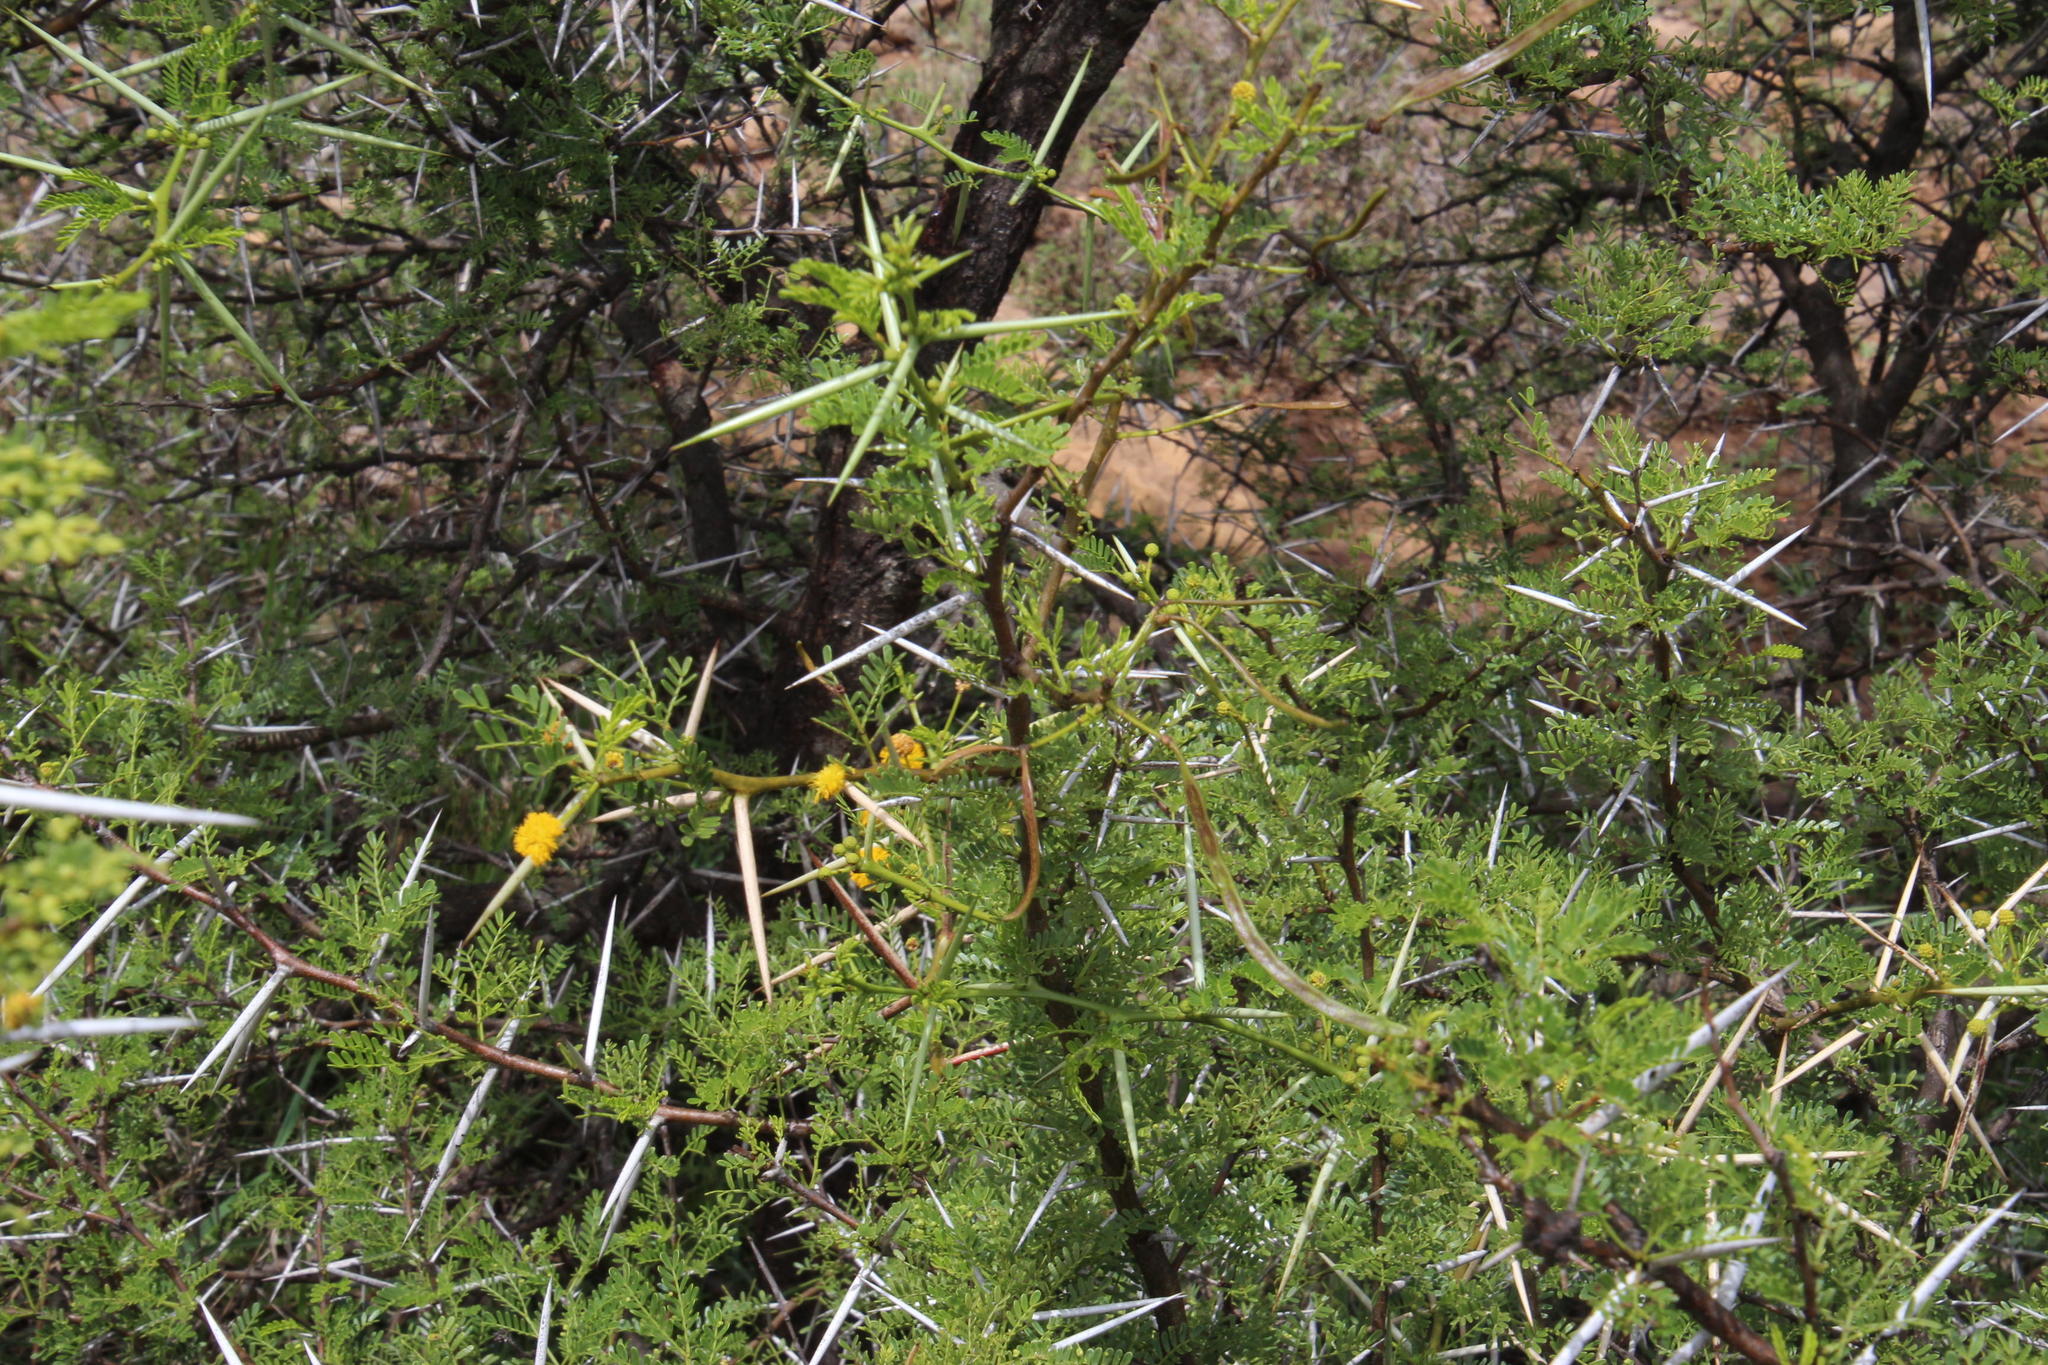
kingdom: Plantae
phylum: Tracheophyta
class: Magnoliopsida
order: Fabales
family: Fabaceae
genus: Vachellia
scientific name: Vachellia karroo
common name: Sweet thorn
